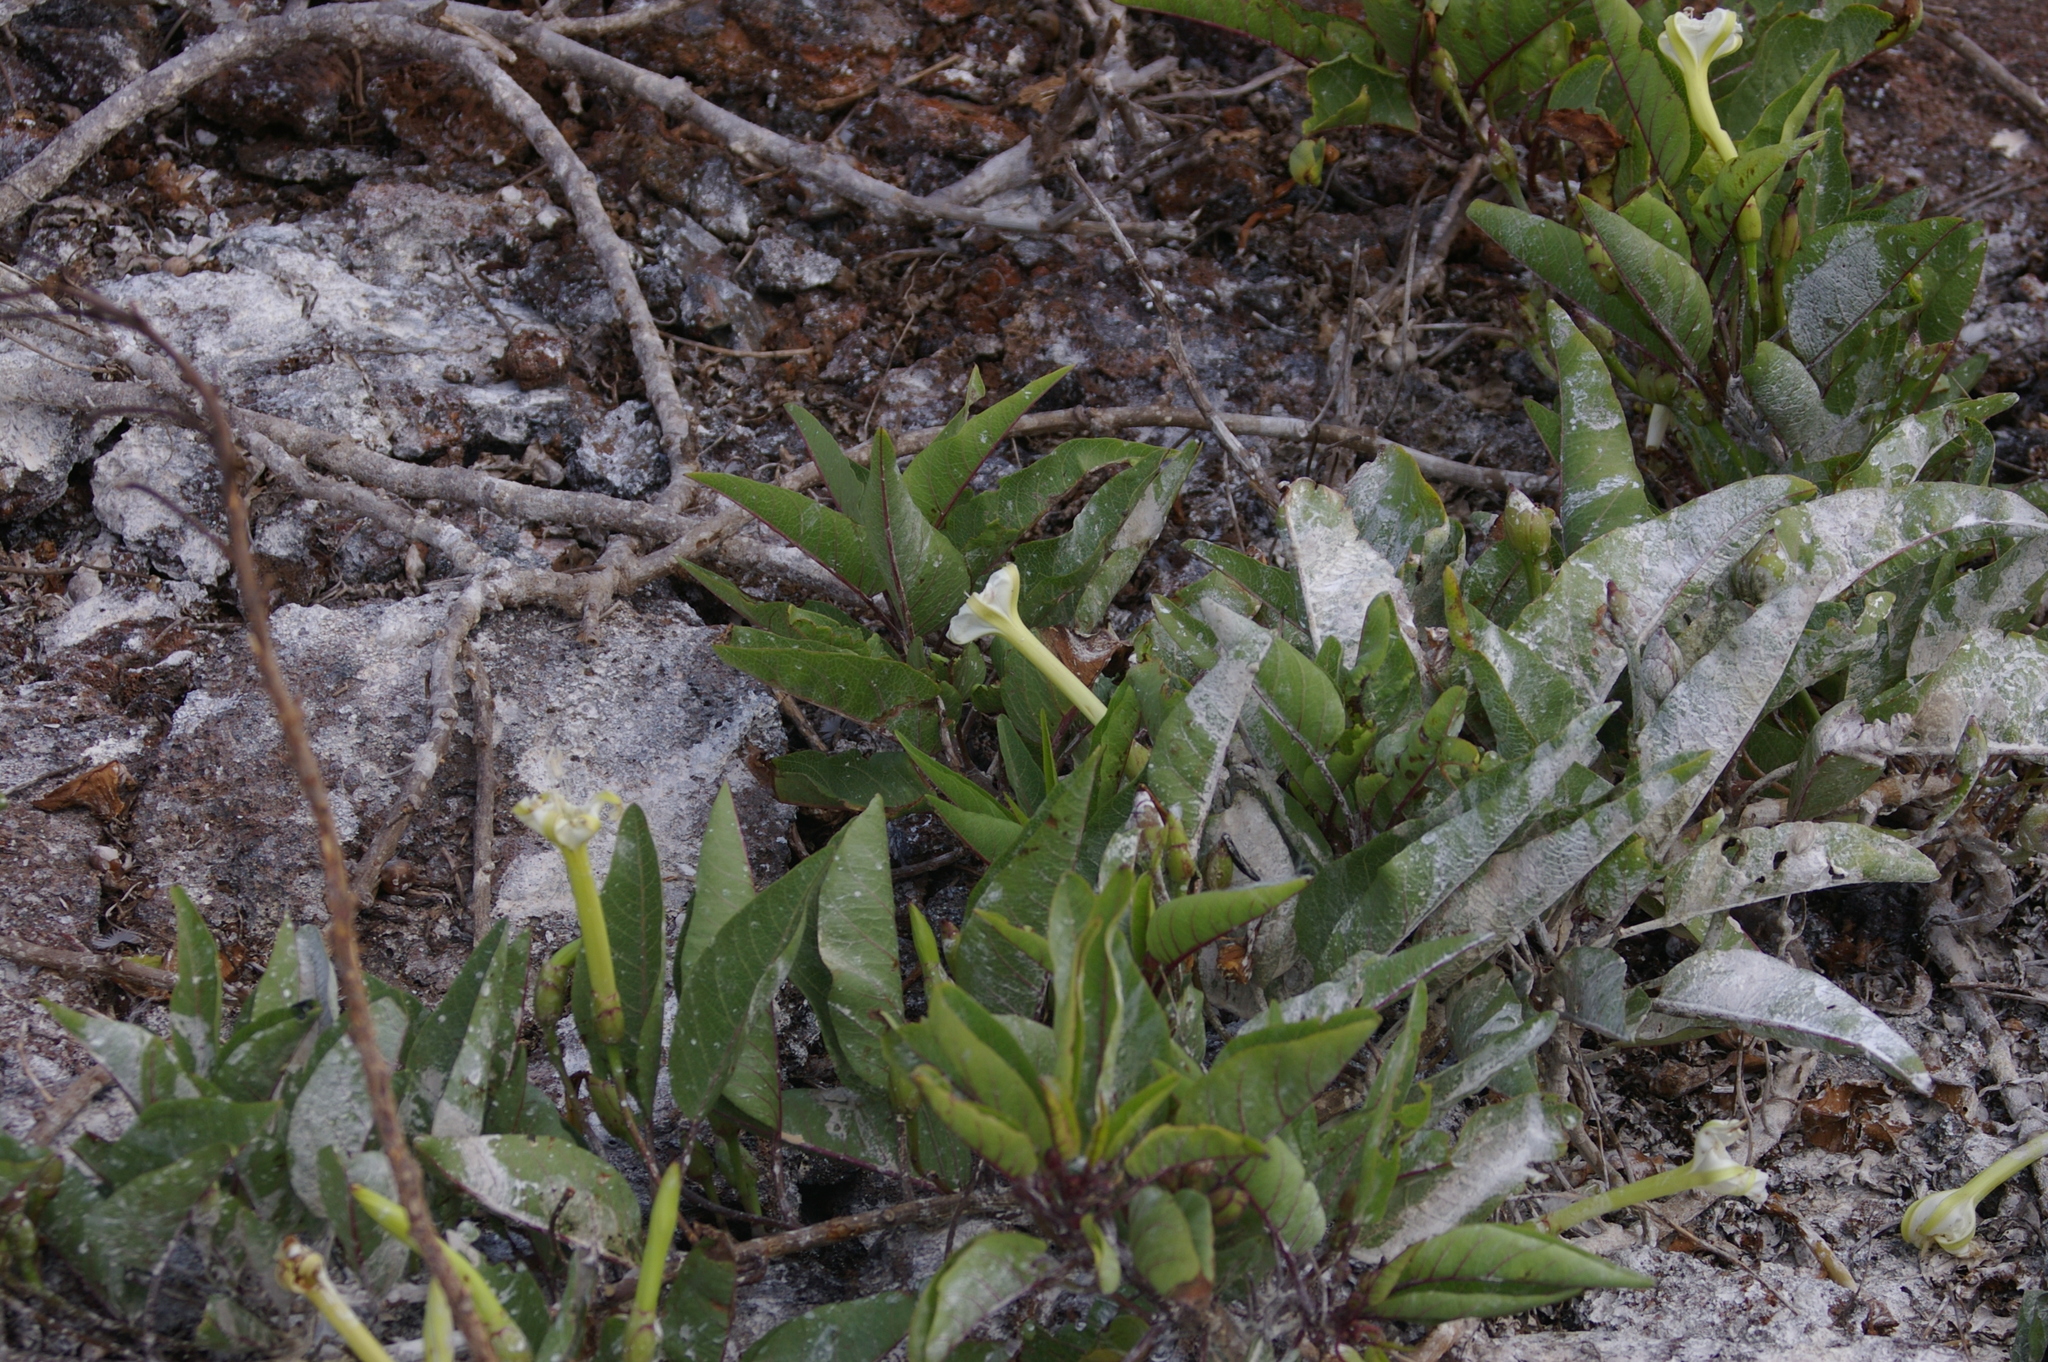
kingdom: Plantae
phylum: Tracheophyta
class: Magnoliopsida
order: Solanales
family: Convolvulaceae
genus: Ipomoea
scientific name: Ipomoea habeliana
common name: Lava morning glory
